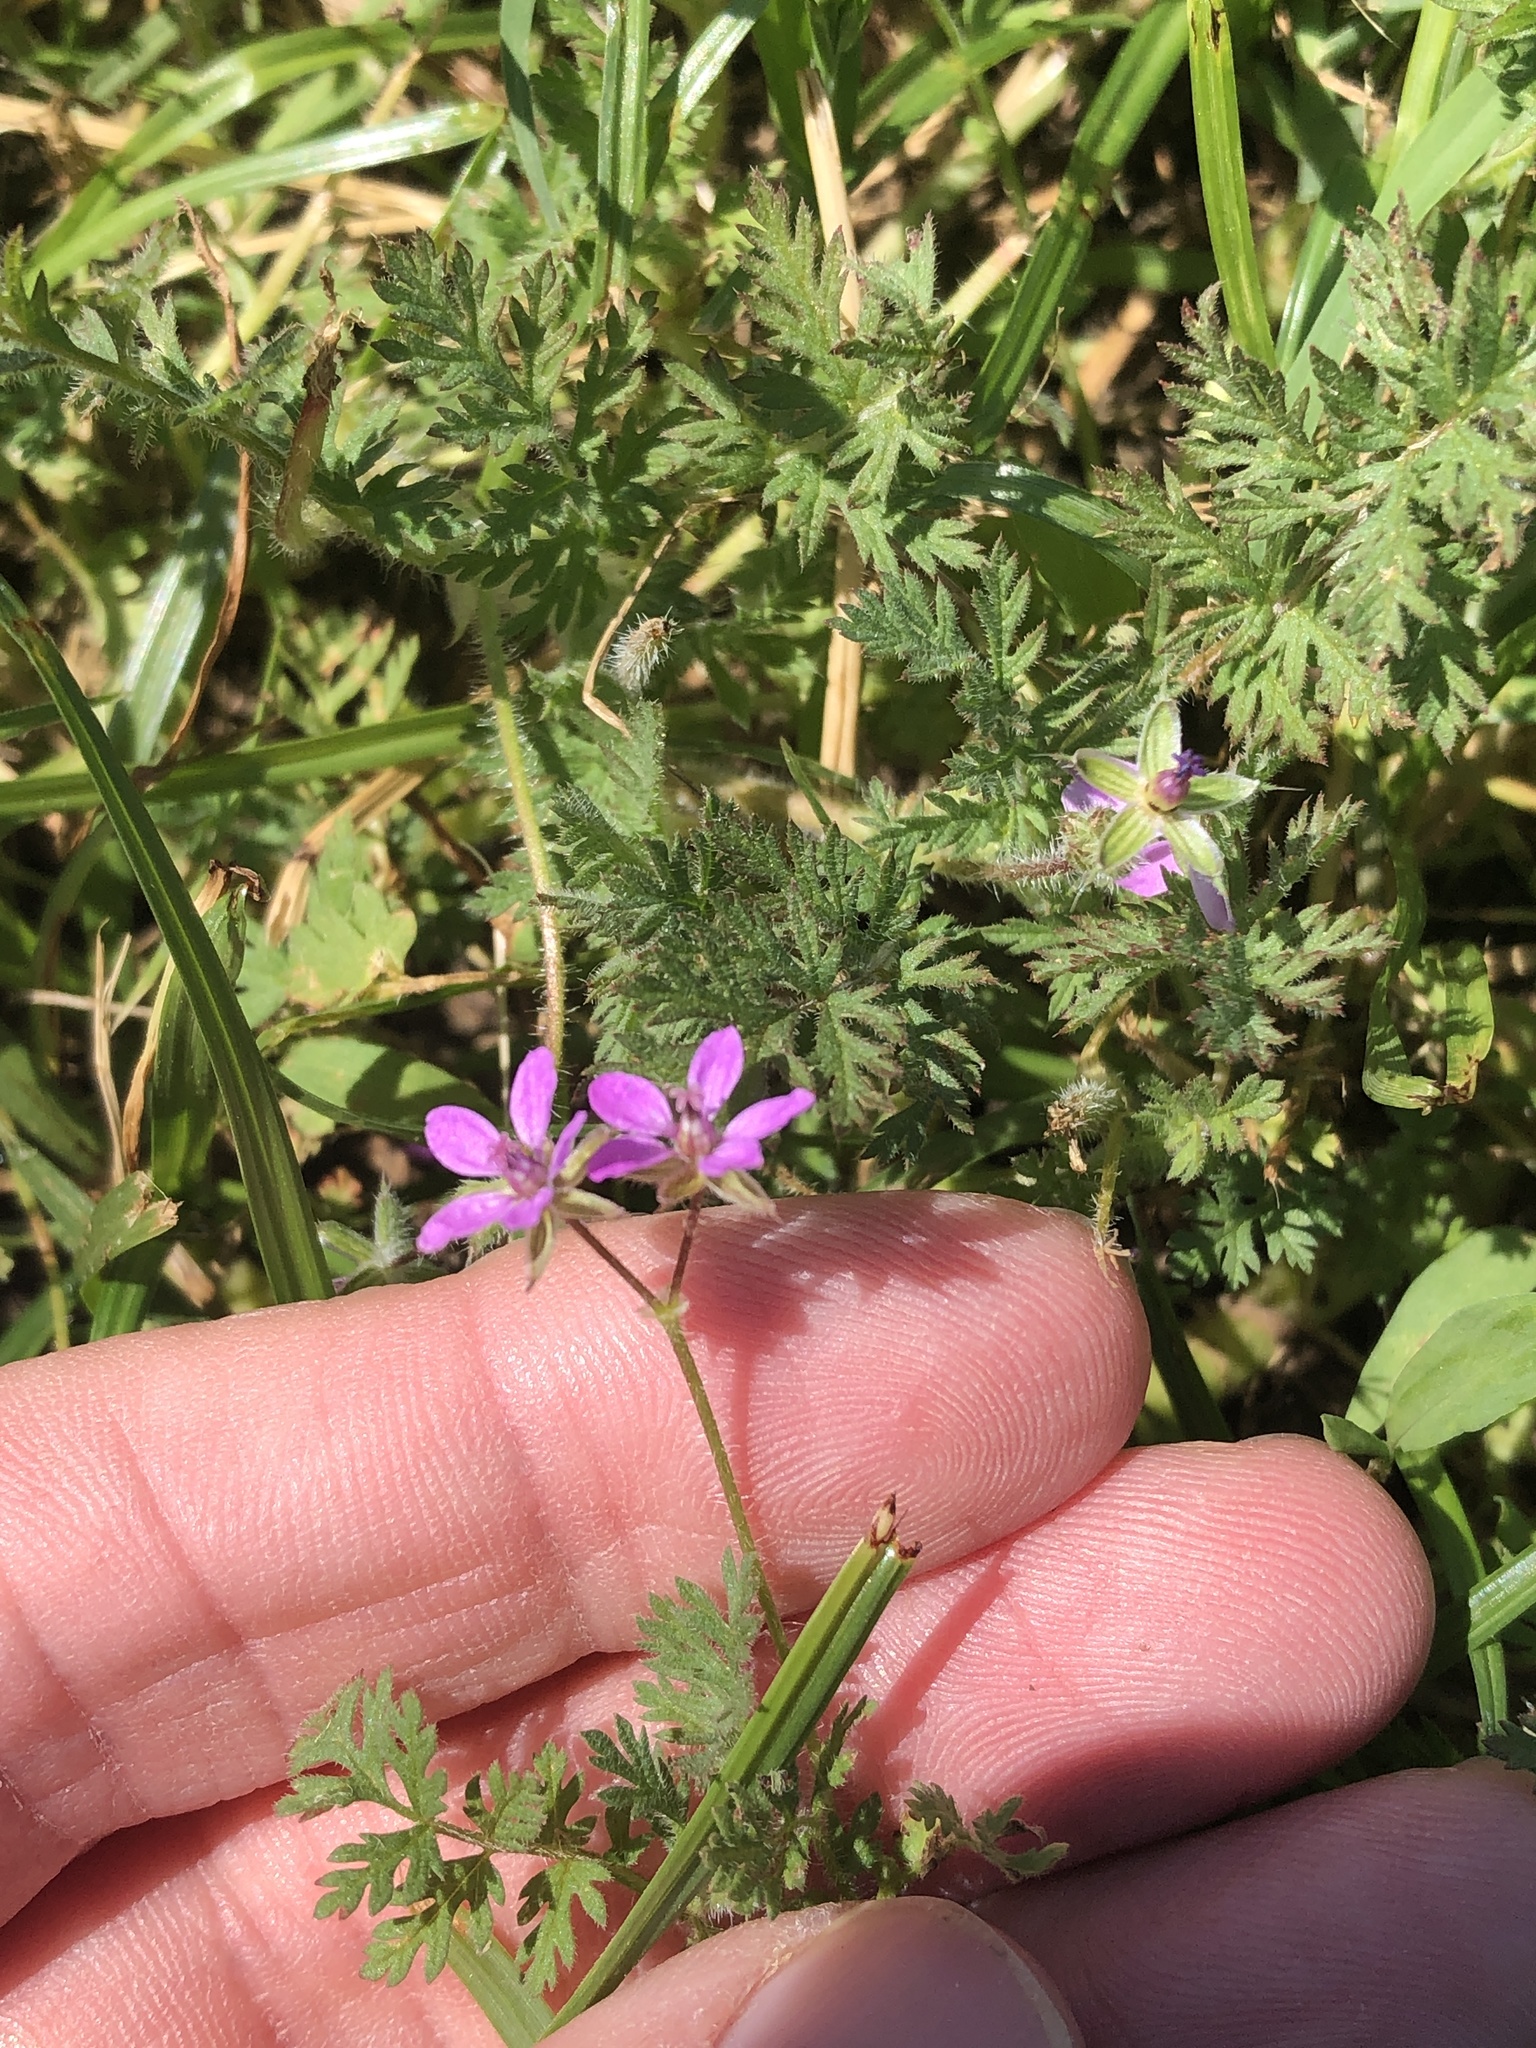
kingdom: Plantae
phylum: Tracheophyta
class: Magnoliopsida
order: Geraniales
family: Geraniaceae
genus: Erodium
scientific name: Erodium cicutarium
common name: Common stork's-bill
